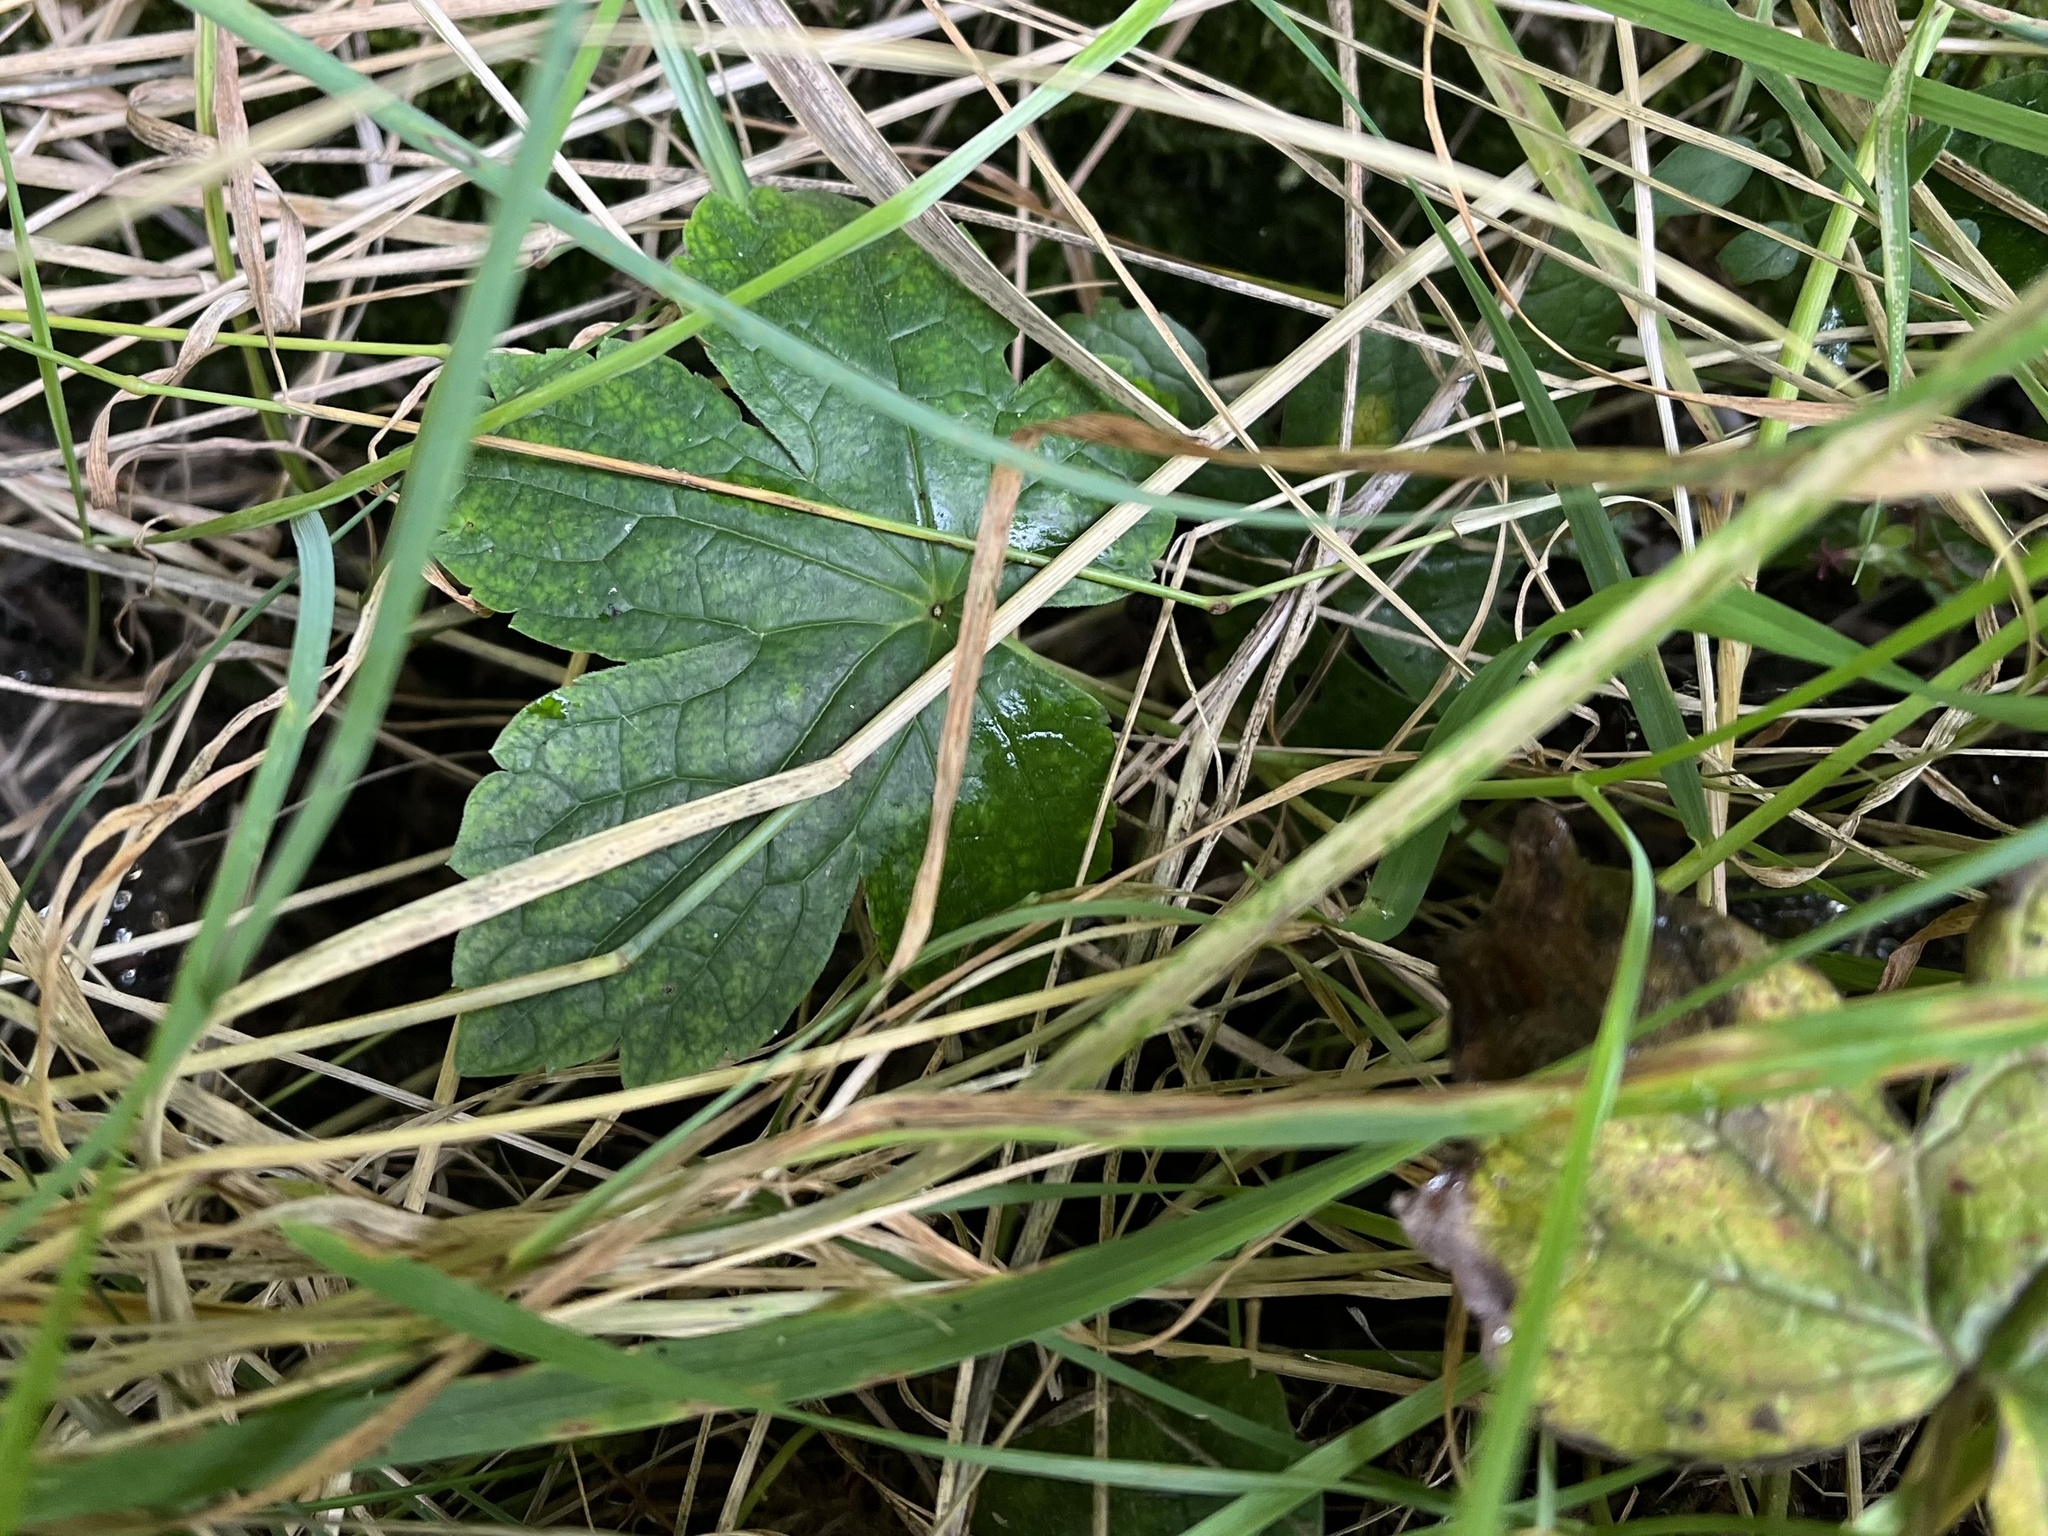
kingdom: Plantae
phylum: Tracheophyta
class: Magnoliopsida
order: Geraniales
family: Geraniaceae
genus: Geranium
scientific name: Geranium nodosum
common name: Knotted crane's-bill
